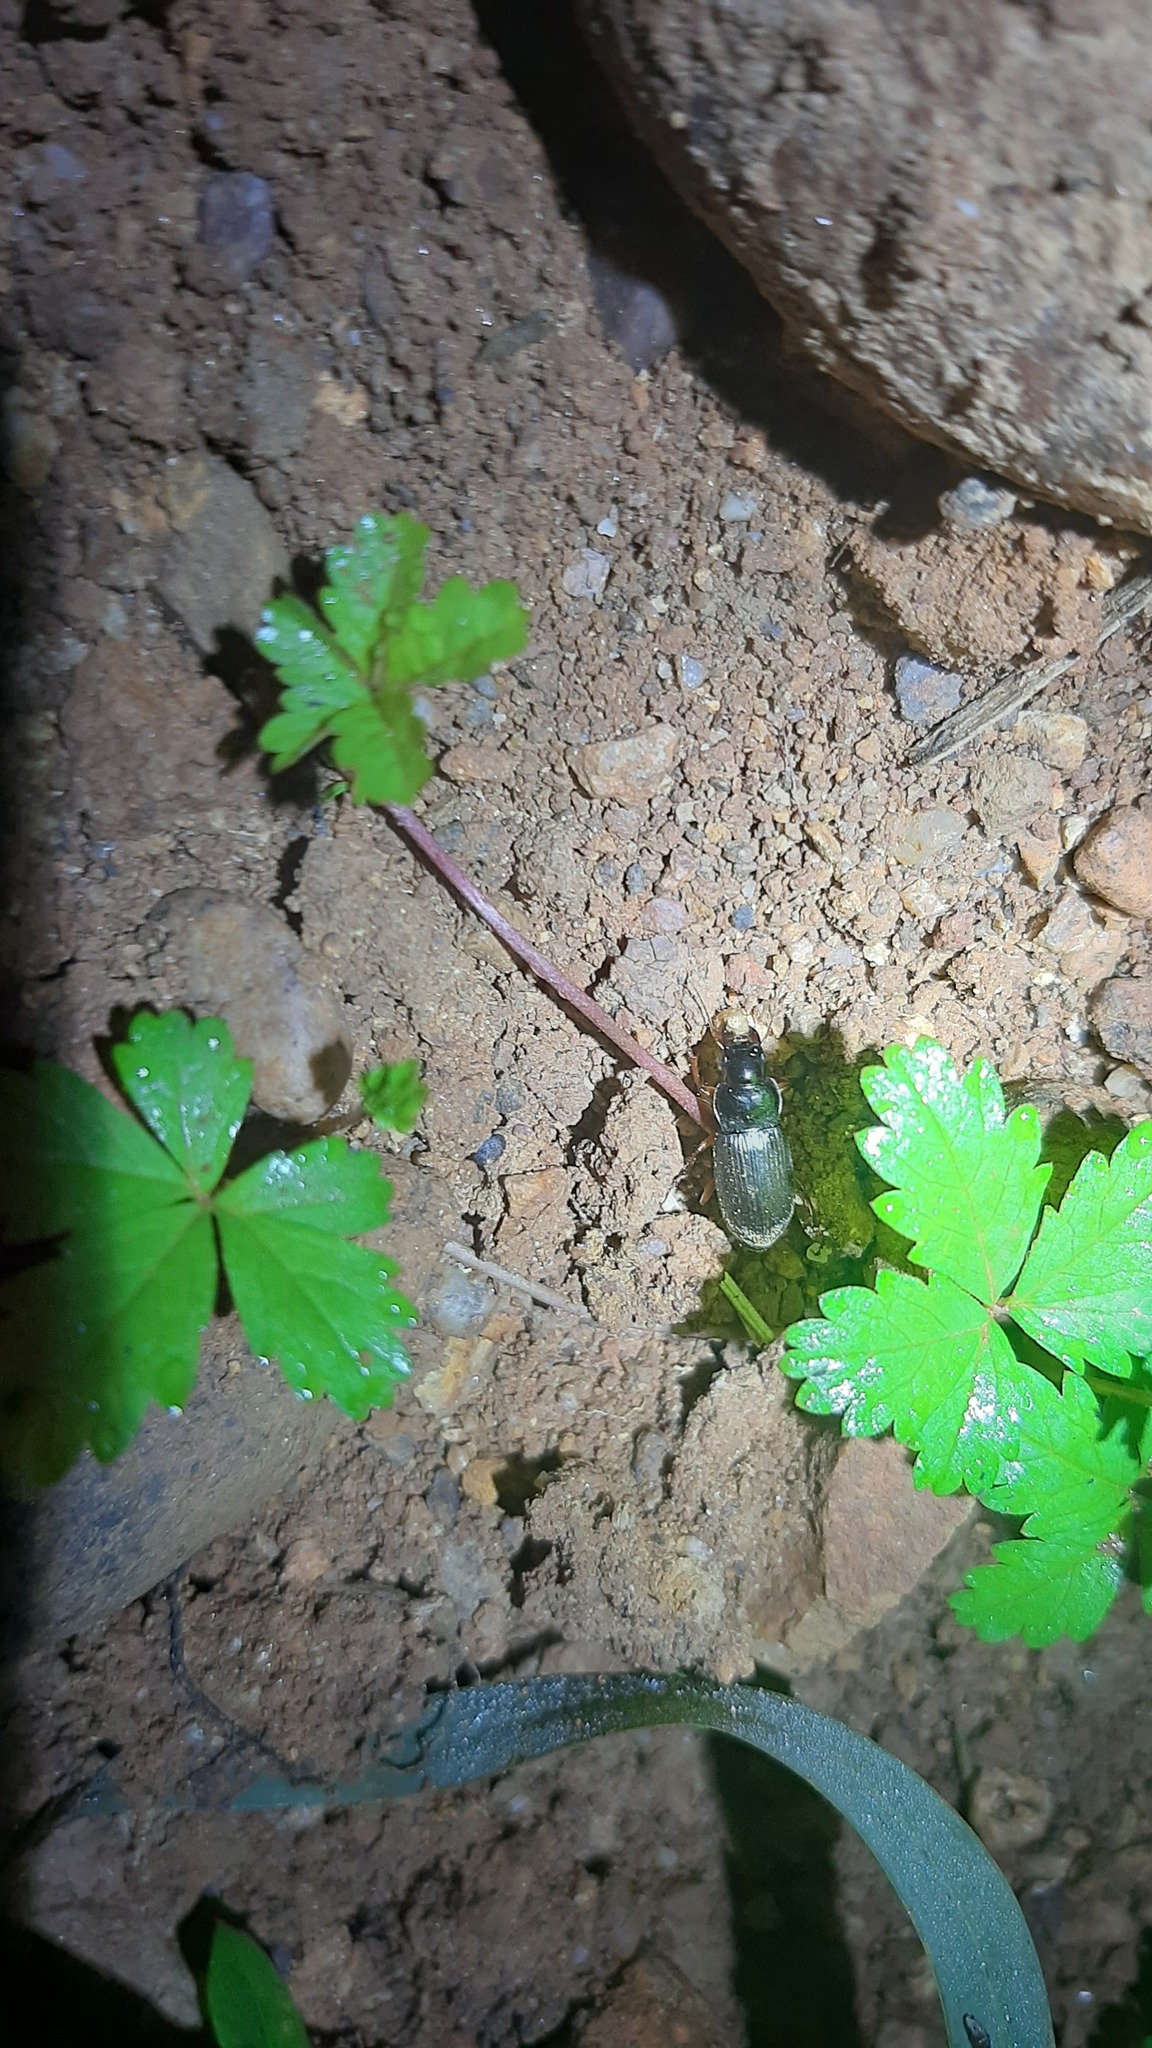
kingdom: Plantae
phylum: Tracheophyta
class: Magnoliopsida
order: Rosales
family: Rosaceae
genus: Potentilla
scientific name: Potentilla reptans
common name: Creeping cinquefoil
